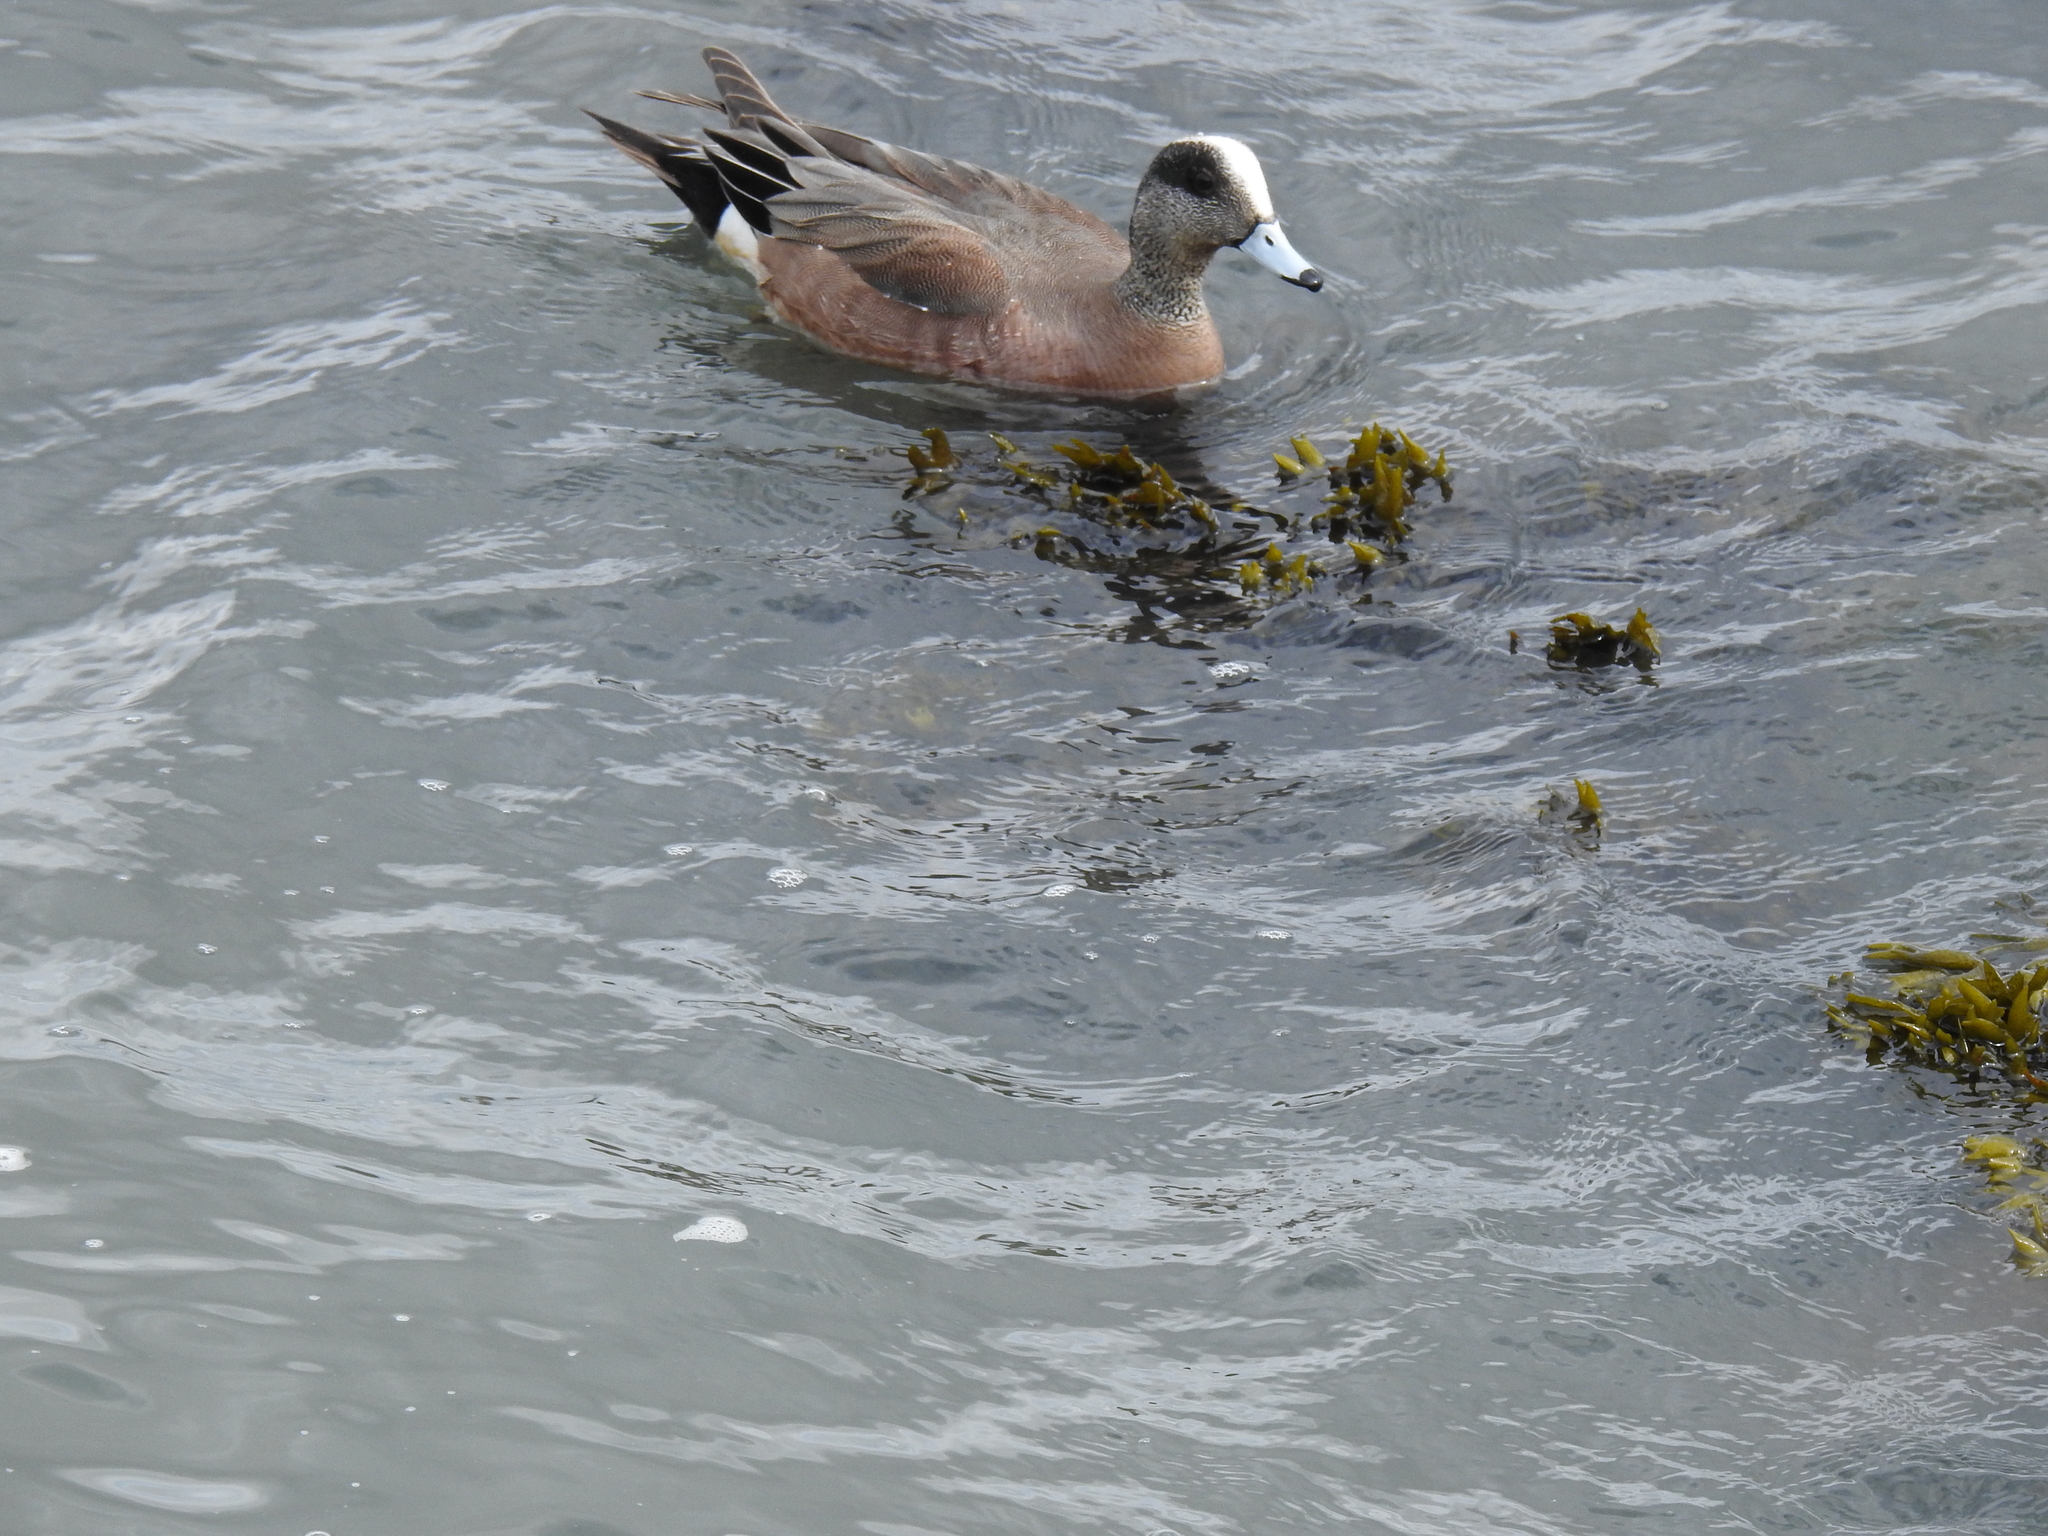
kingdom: Animalia
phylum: Chordata
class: Aves
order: Anseriformes
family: Anatidae
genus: Mareca
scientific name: Mareca americana
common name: American wigeon
